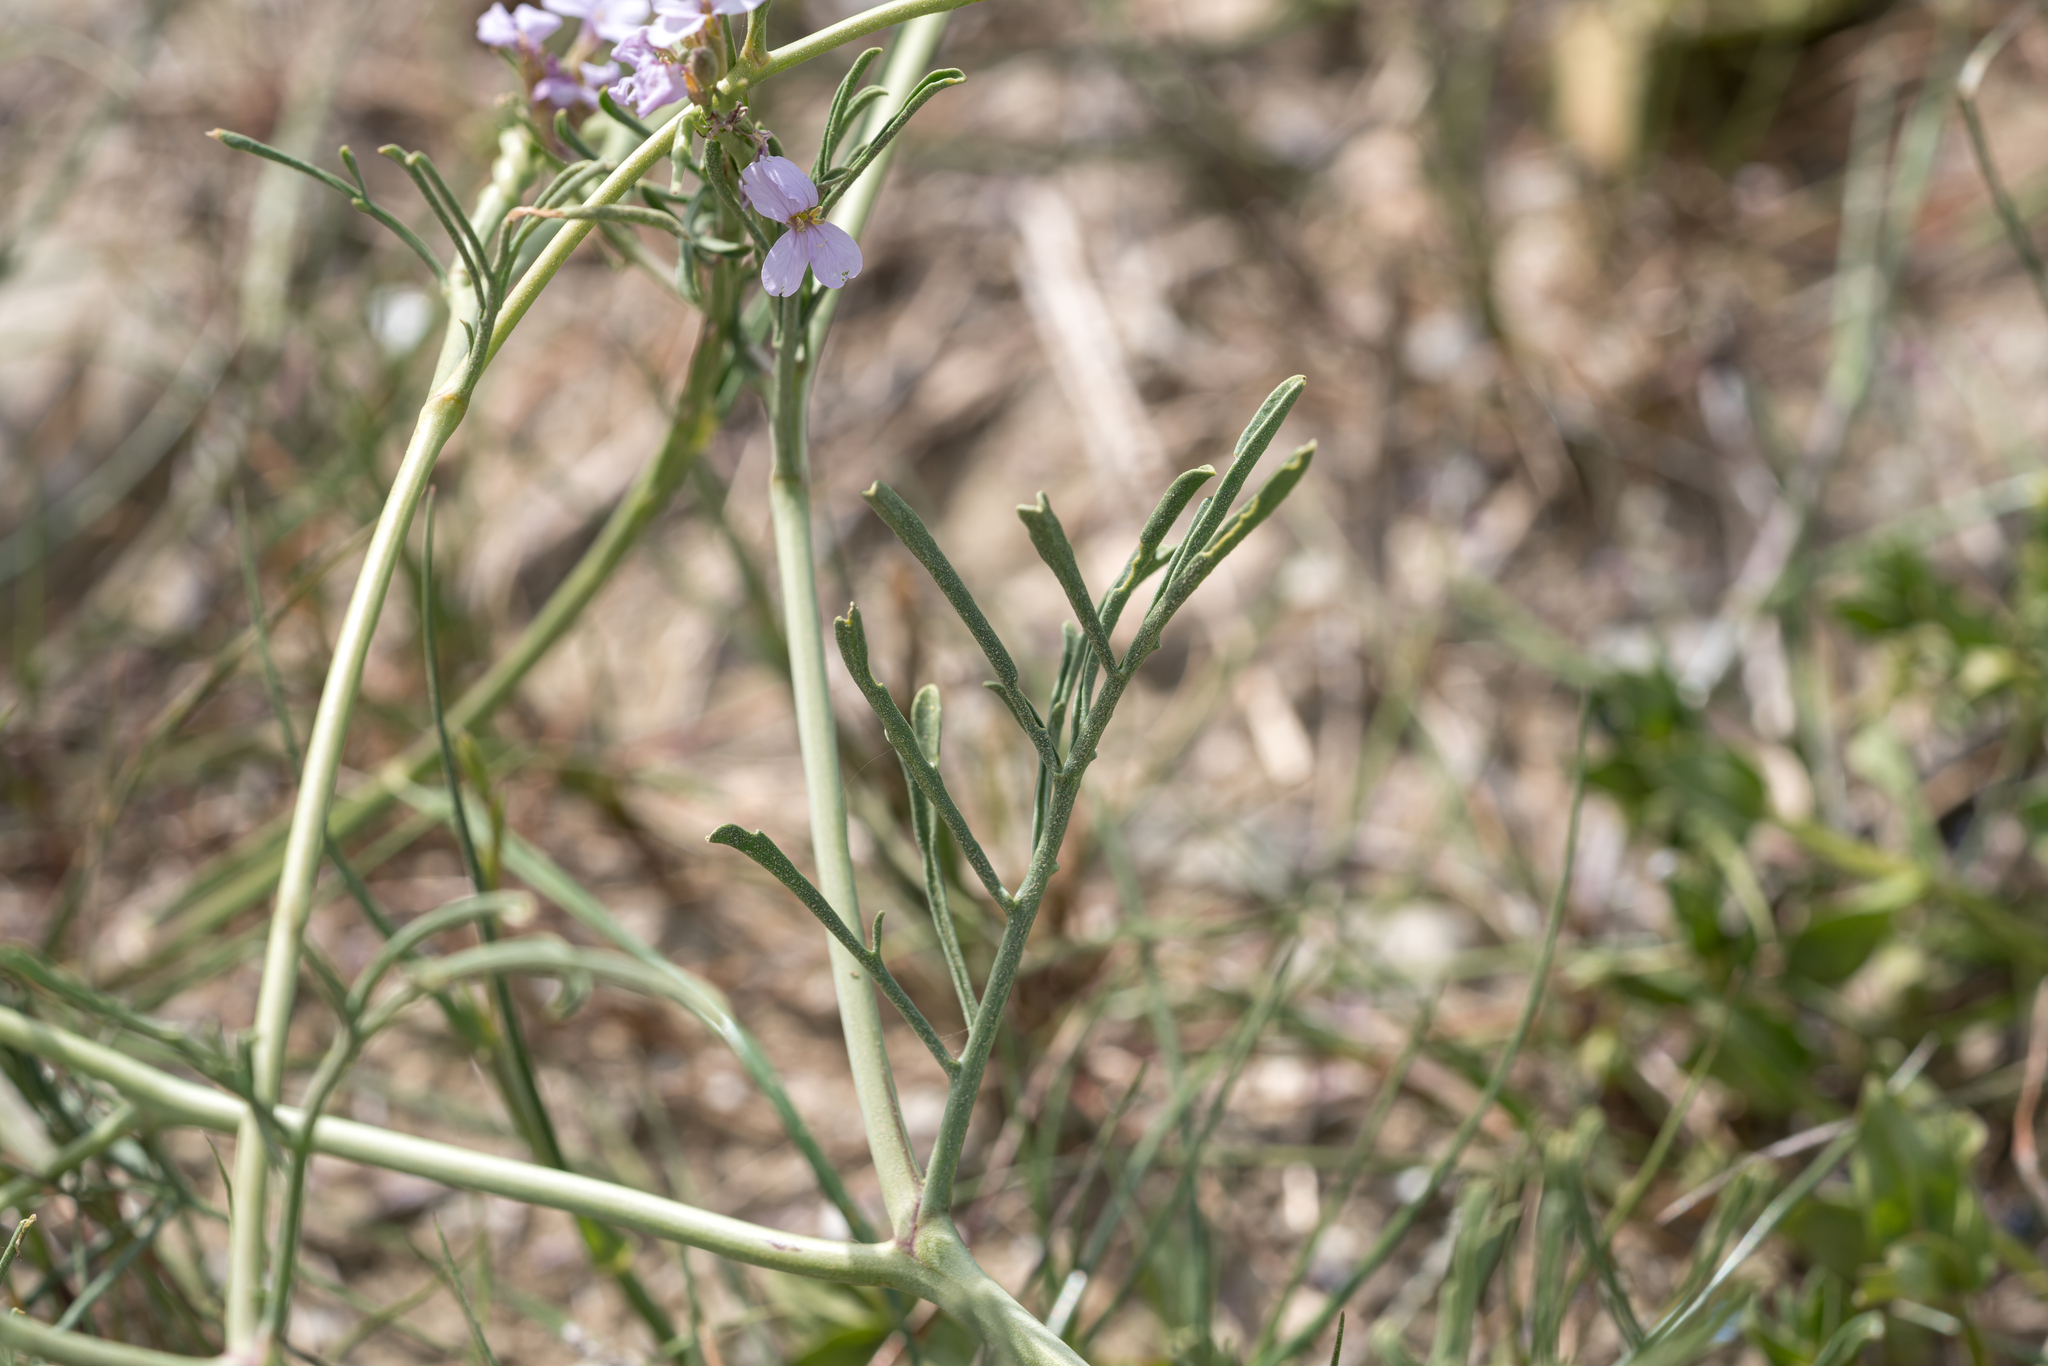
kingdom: Plantae
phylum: Tracheophyta
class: Magnoliopsida
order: Brassicales
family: Brassicaceae
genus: Erucaria
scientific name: Erucaria hispanica
